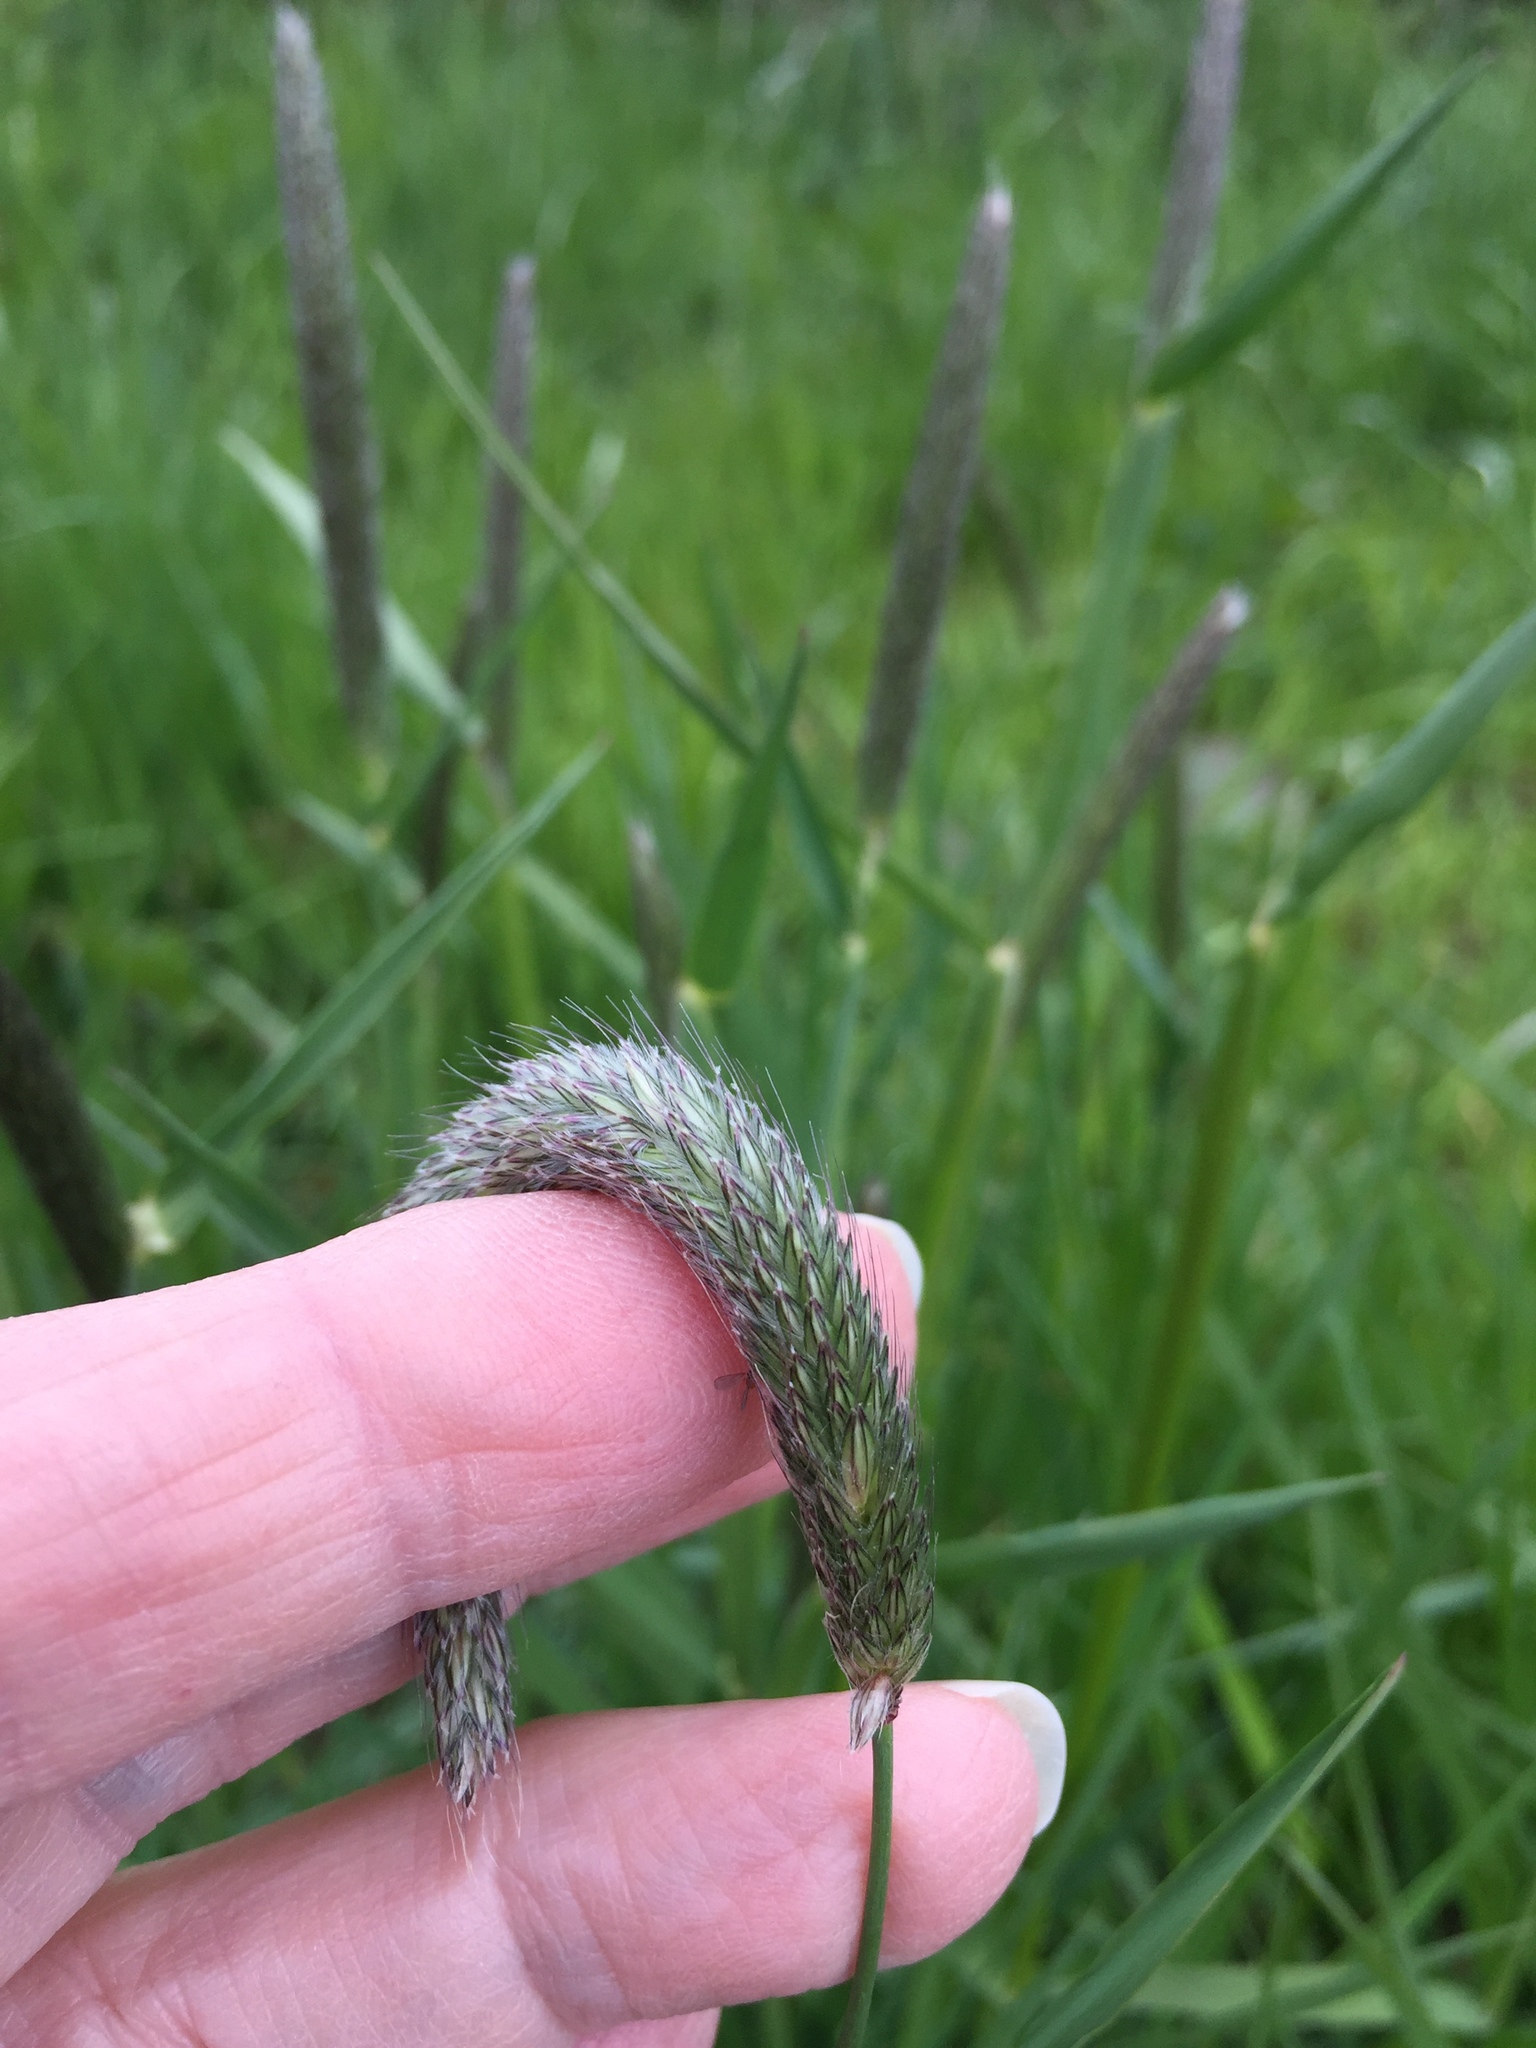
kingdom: Plantae
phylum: Tracheophyta
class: Liliopsida
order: Poales
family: Poaceae
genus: Alopecurus
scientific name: Alopecurus pratensis
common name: Meadow foxtail
